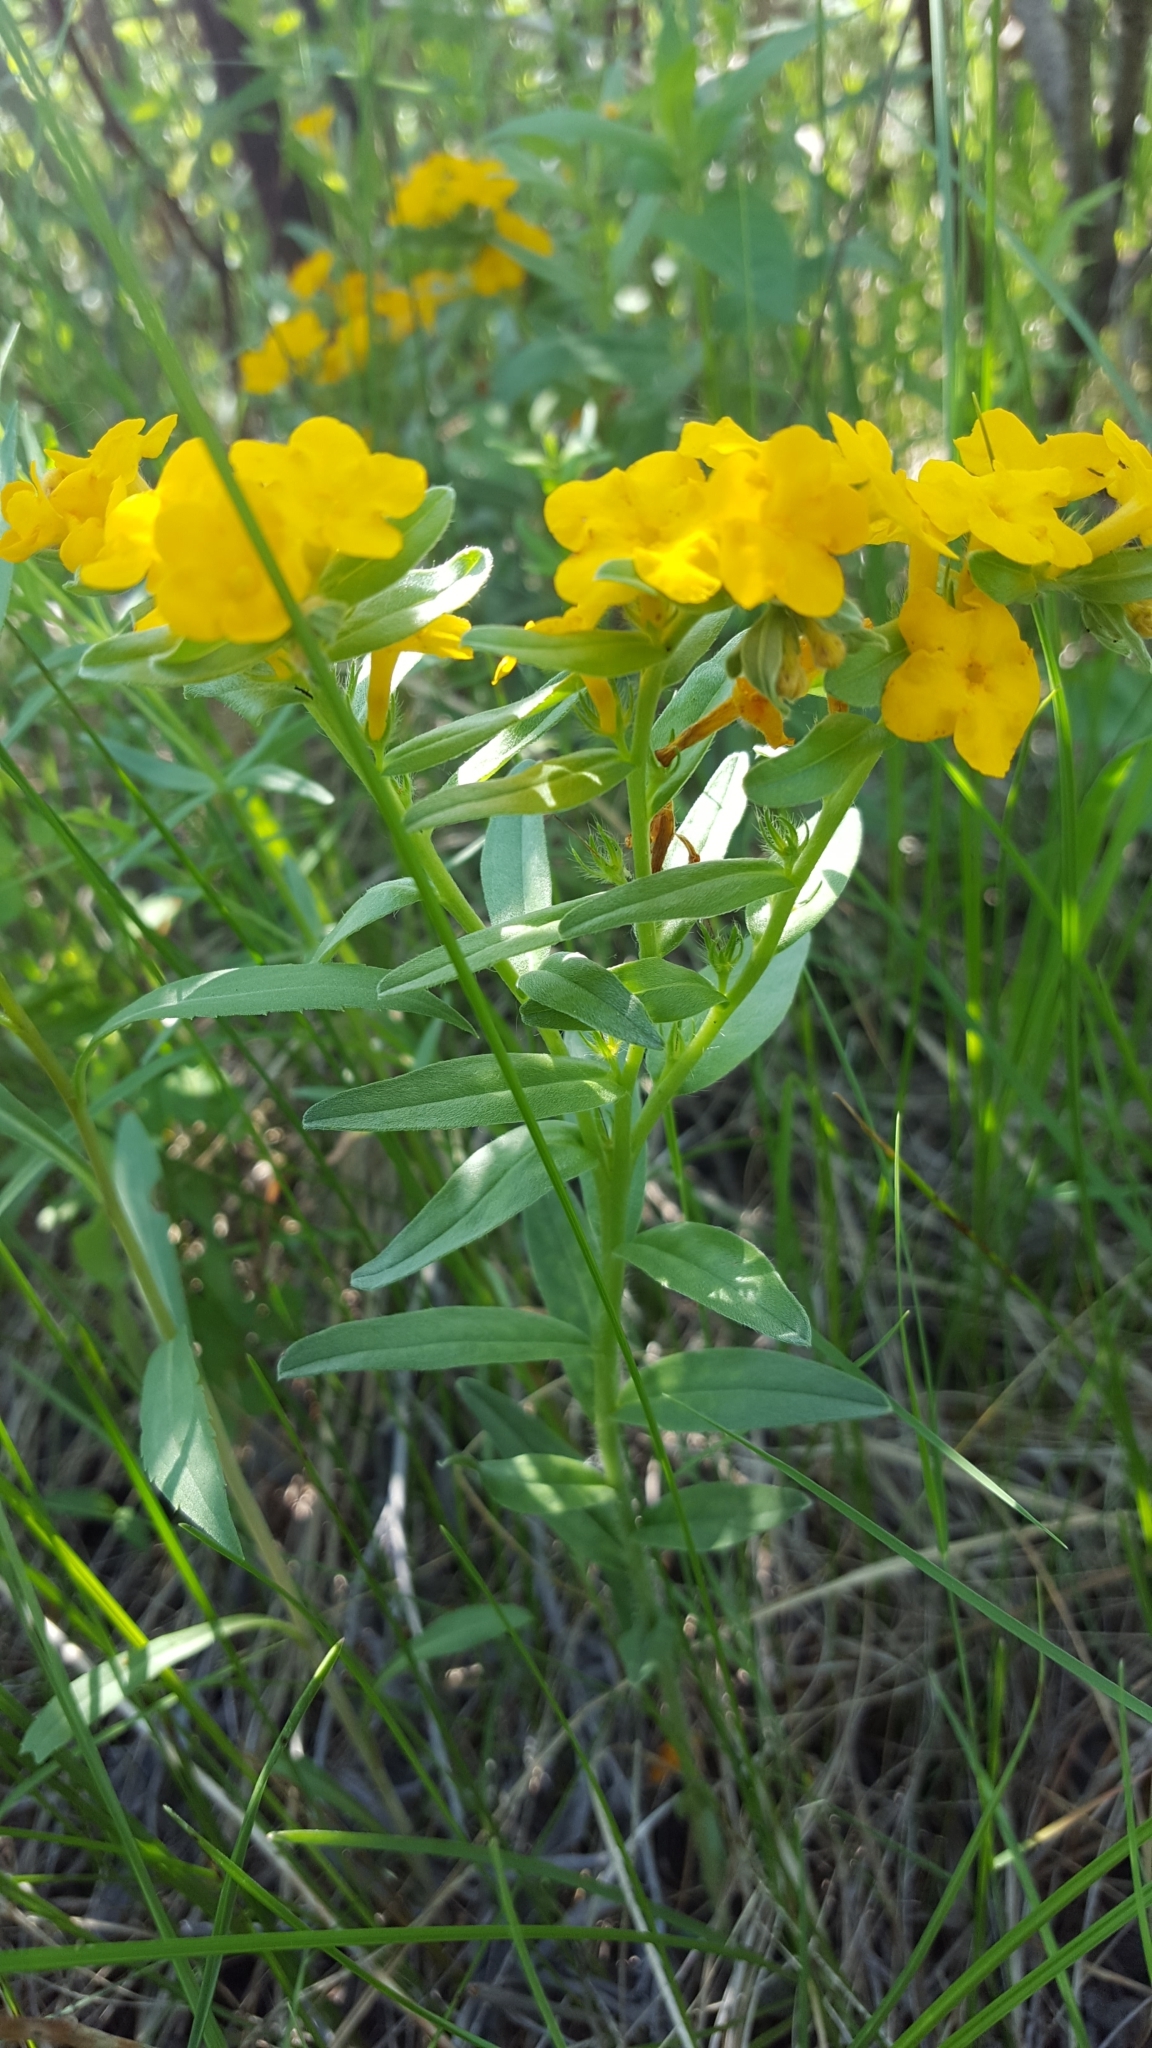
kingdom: Plantae
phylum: Tracheophyta
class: Magnoliopsida
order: Boraginales
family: Boraginaceae
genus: Lithospermum
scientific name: Lithospermum canescens
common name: Hoary puccoon
